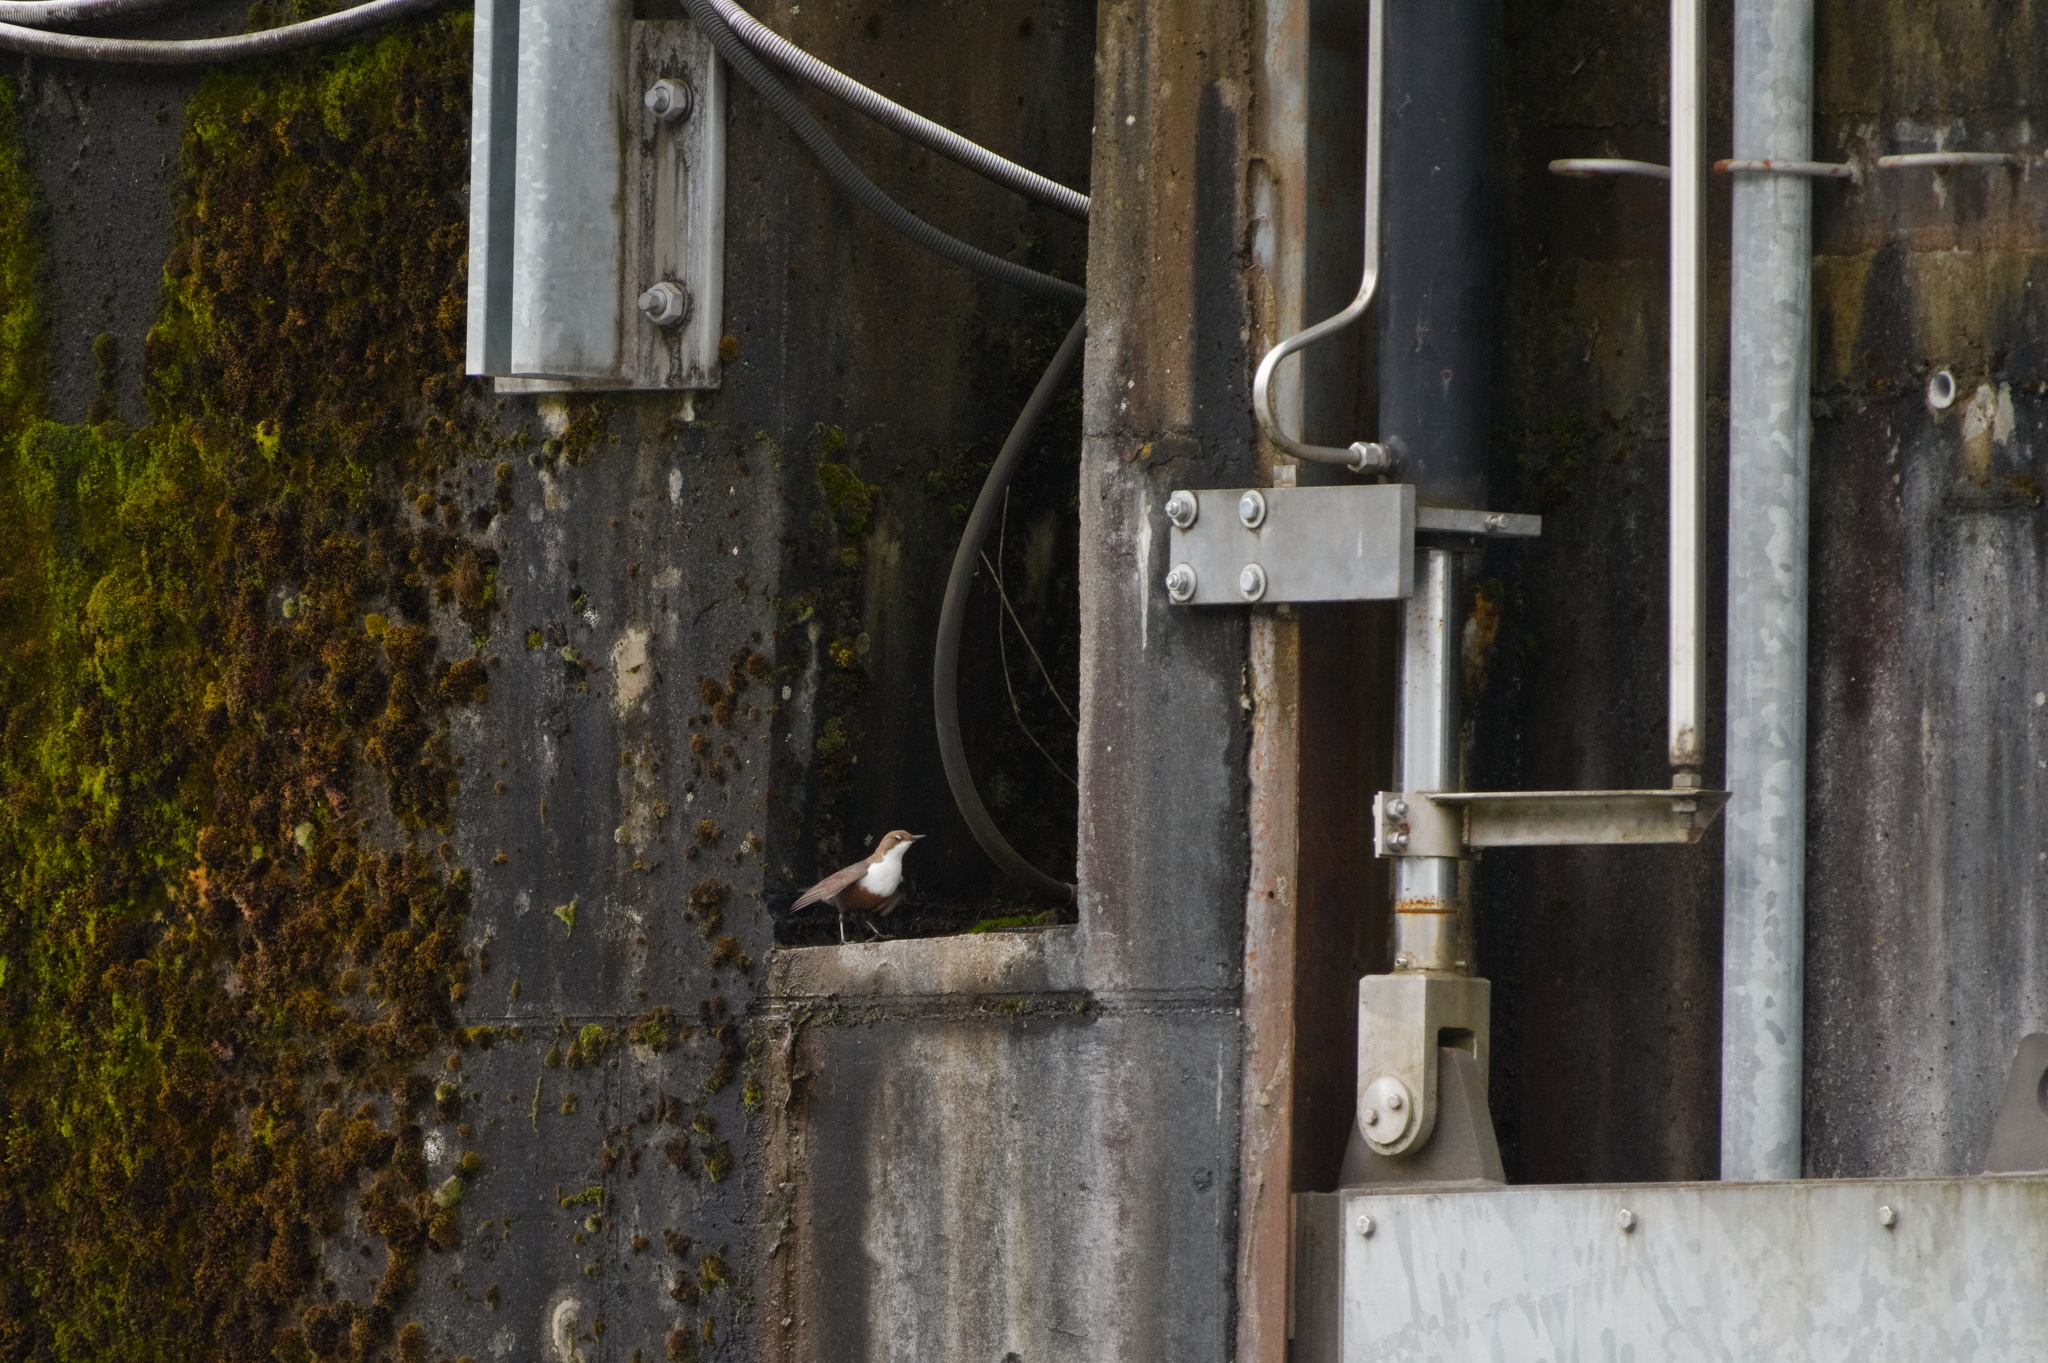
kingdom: Animalia
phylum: Chordata
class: Aves
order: Passeriformes
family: Cinclidae
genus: Cinclus
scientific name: Cinclus cinclus
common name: White-throated dipper
